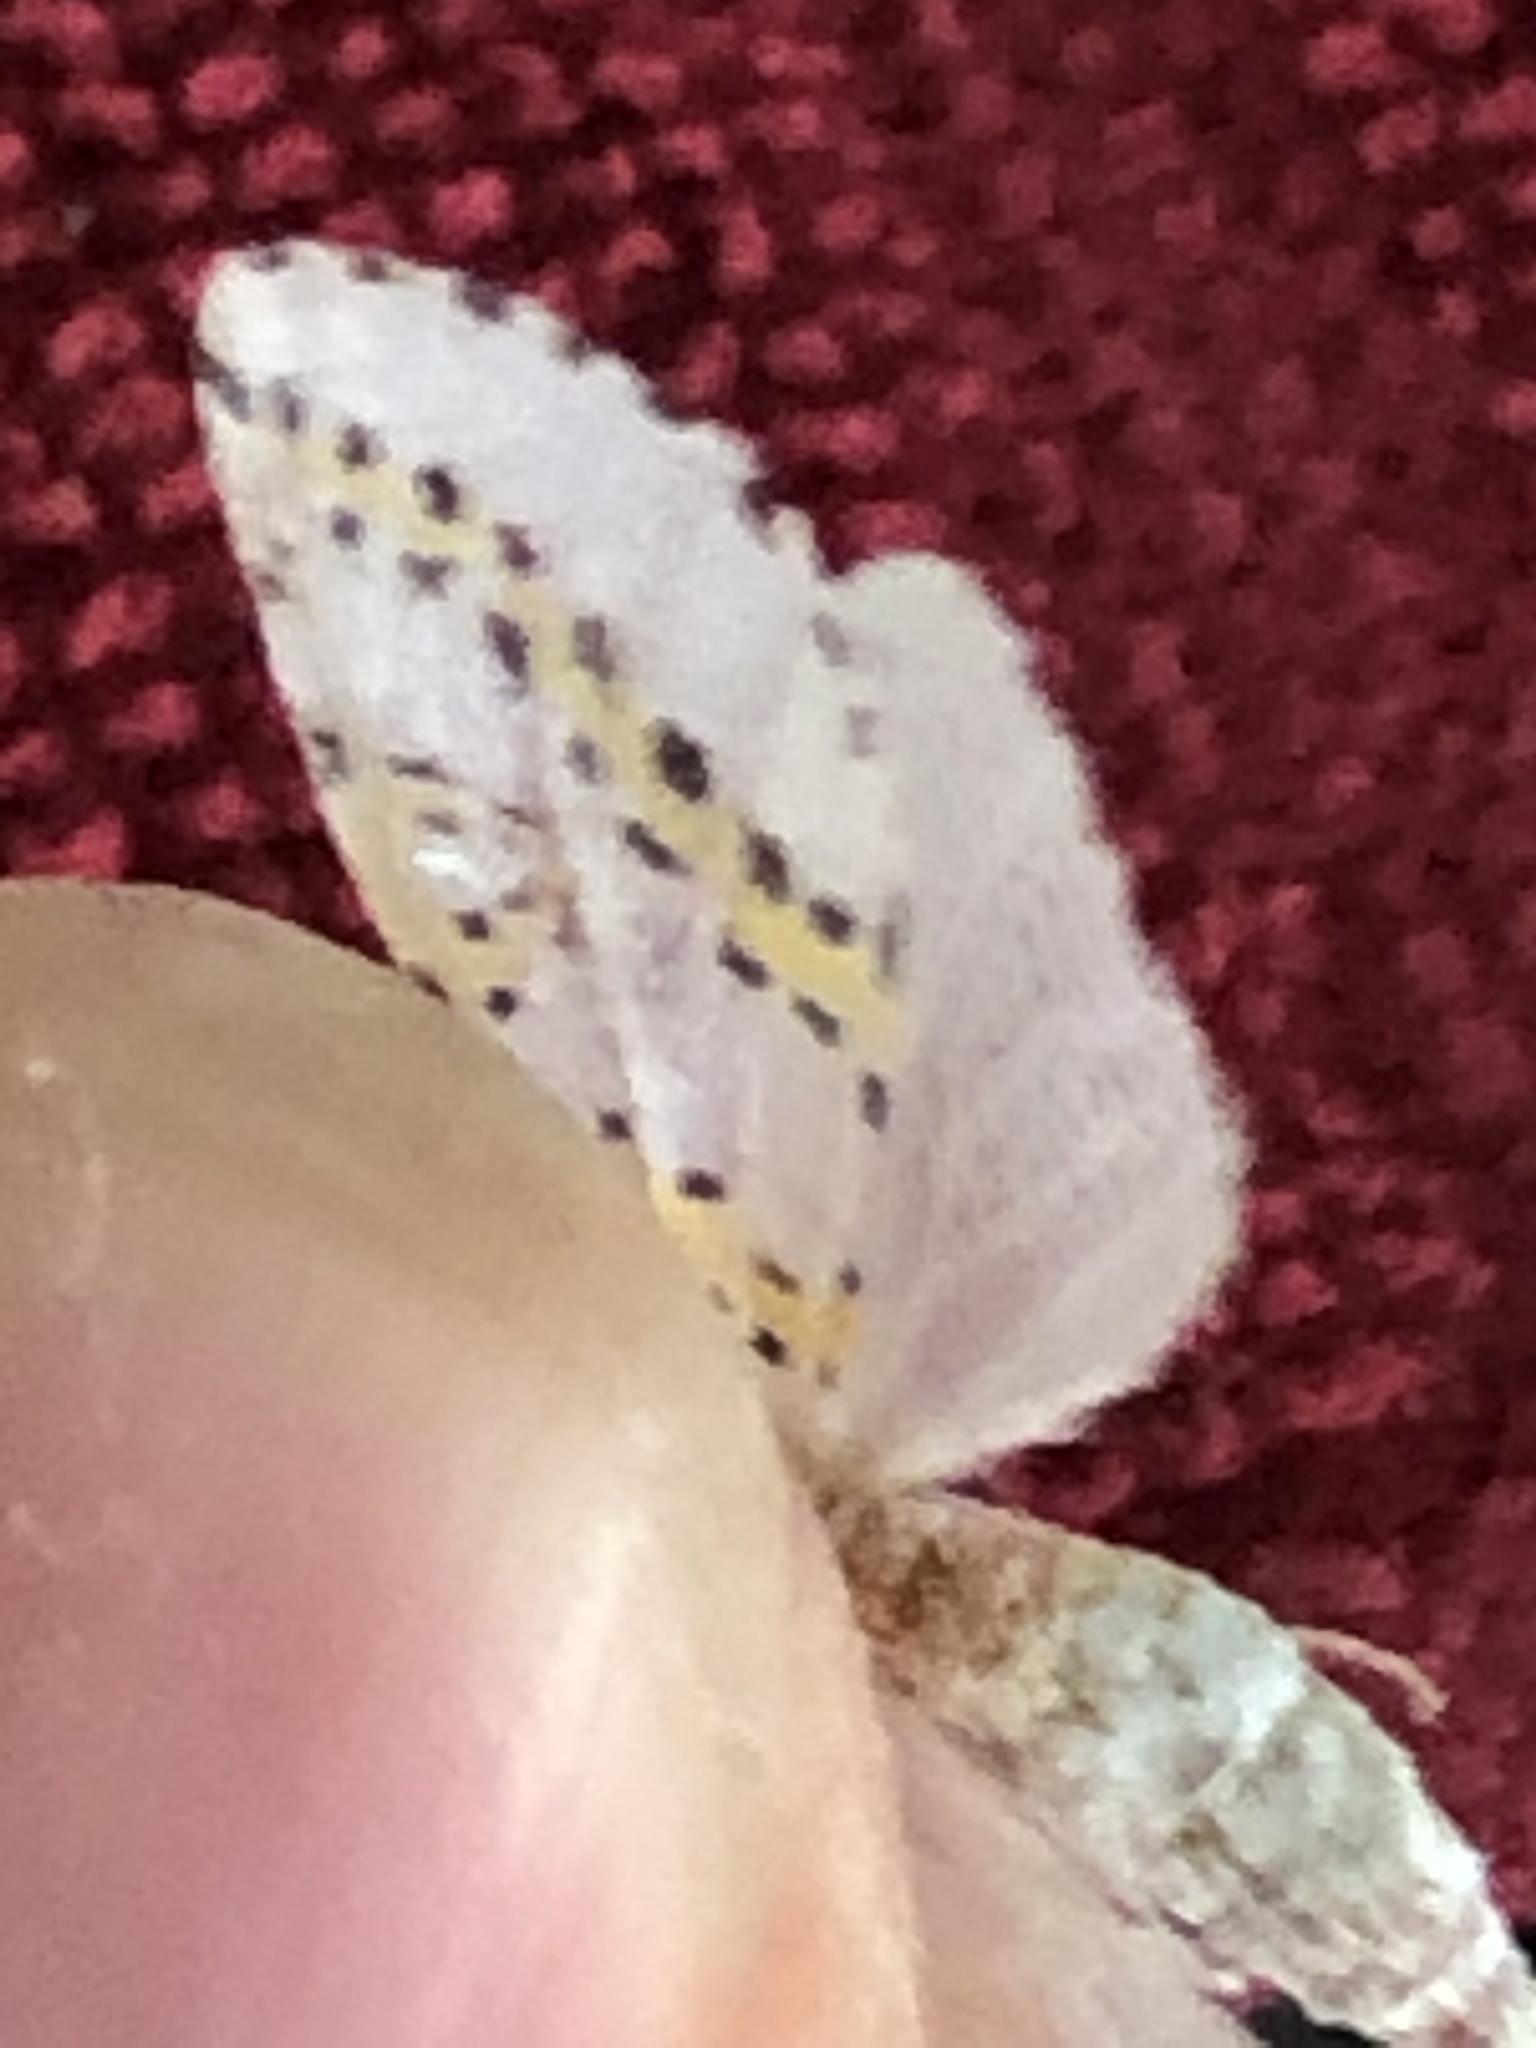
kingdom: Animalia
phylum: Arthropoda
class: Insecta
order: Lepidoptera
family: Geometridae
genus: Philtraea
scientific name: Philtraea monillata
